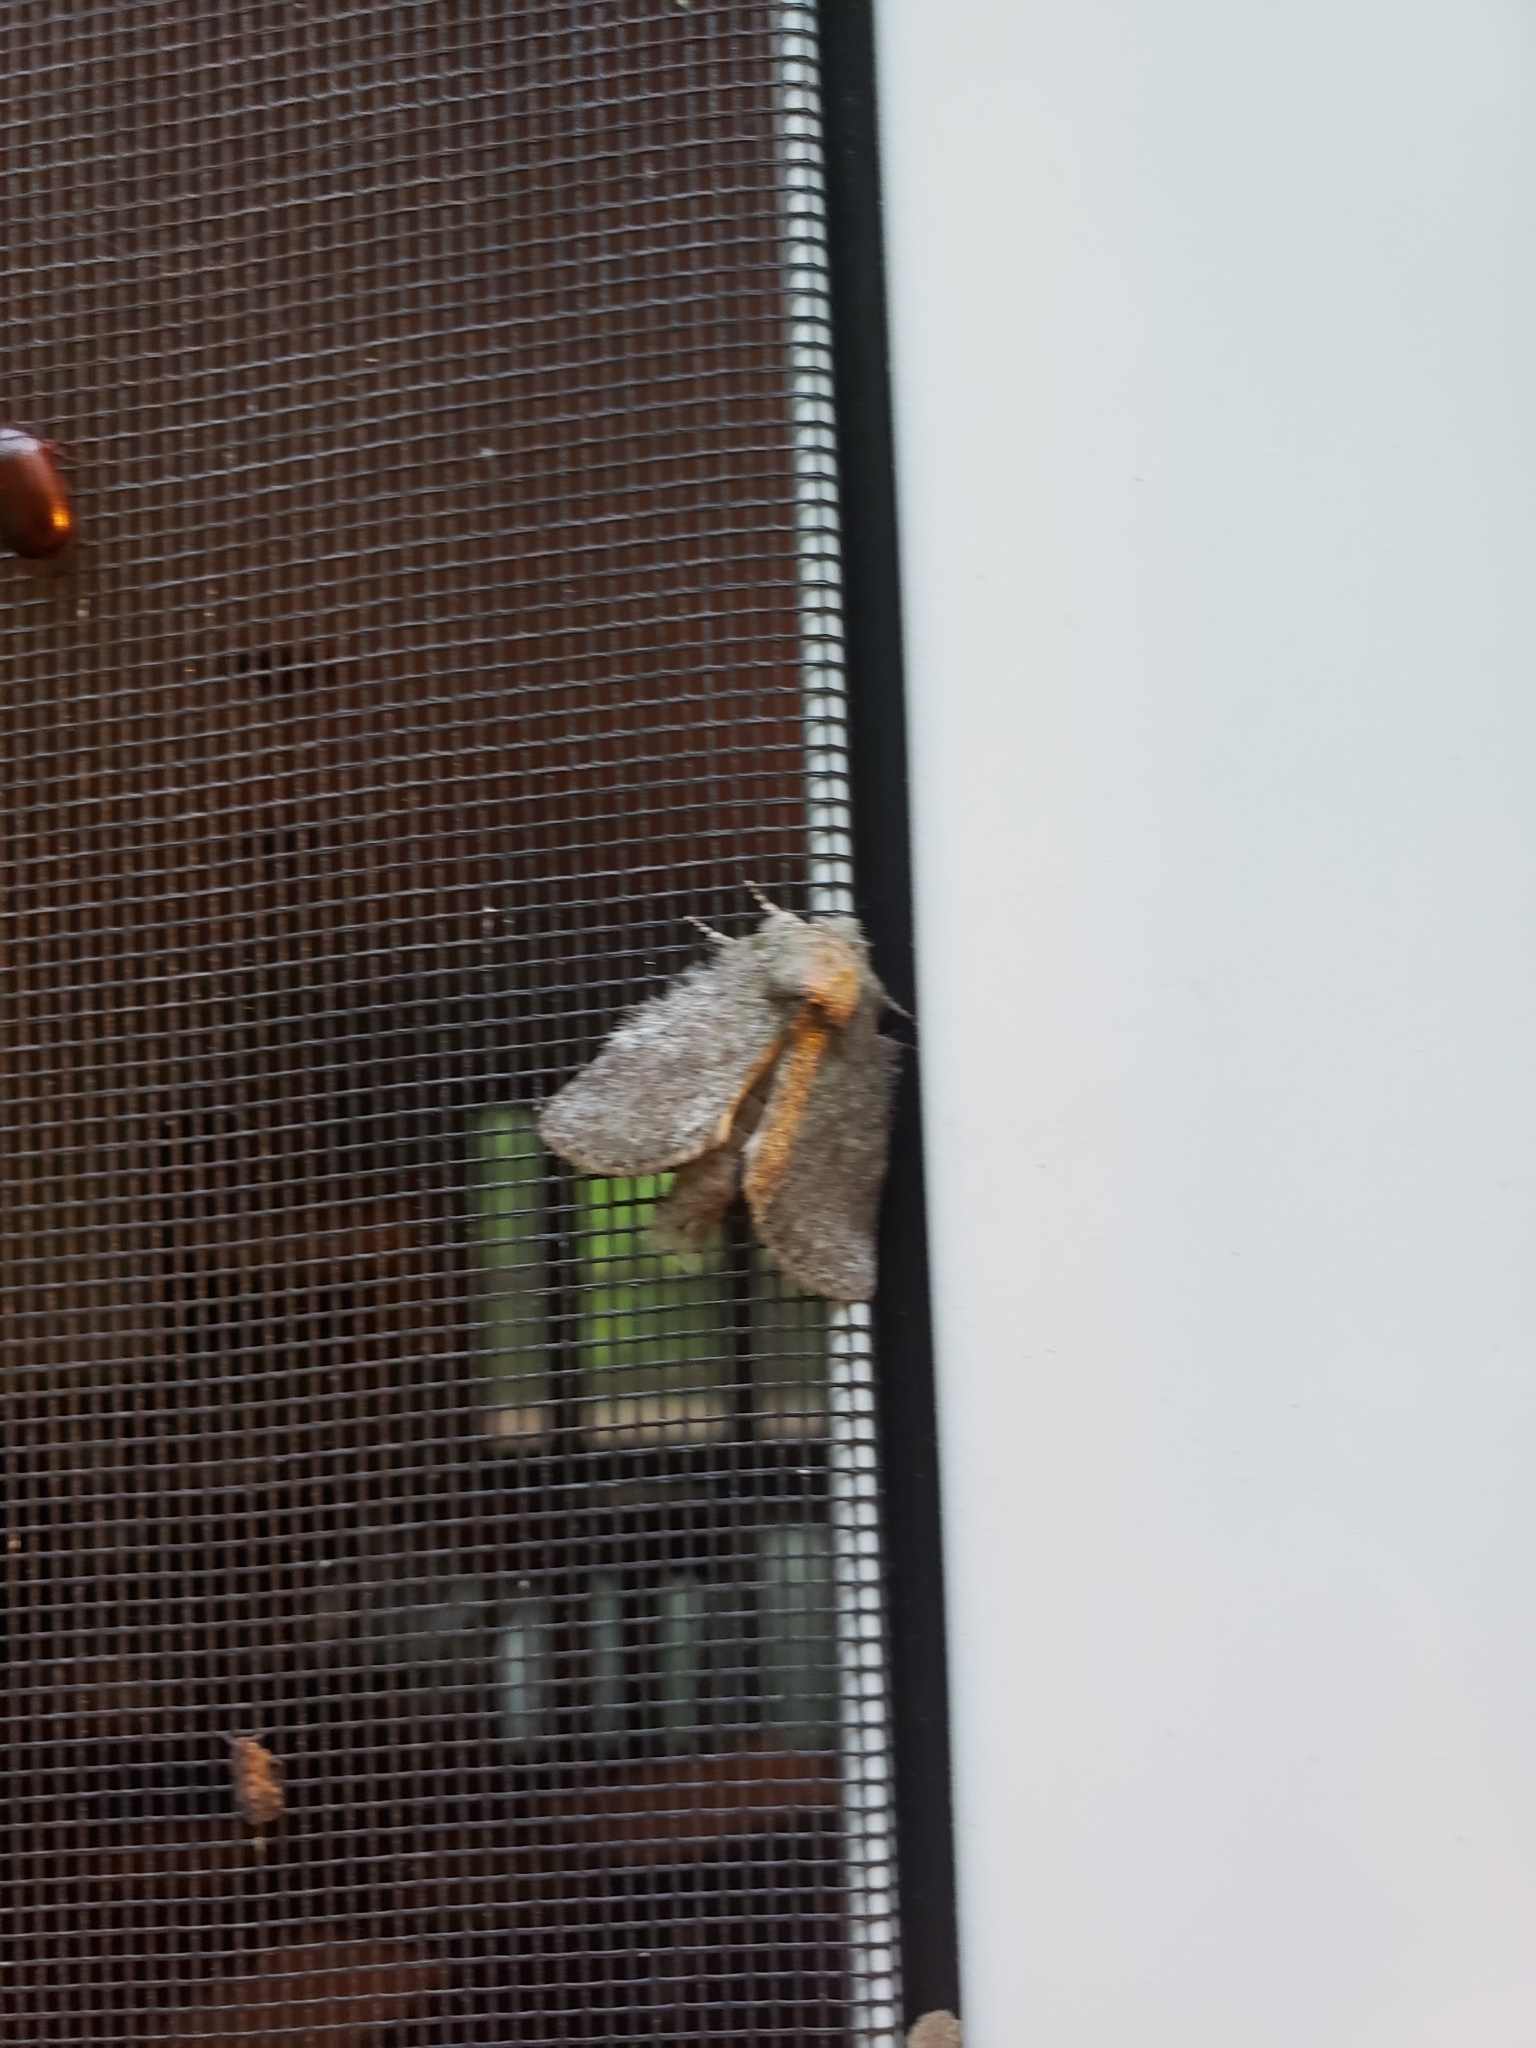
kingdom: Animalia
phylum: Arthropoda
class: Insecta
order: Lepidoptera
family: Notodontidae
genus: Disphragis
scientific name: Disphragis Cecrita guttivitta
